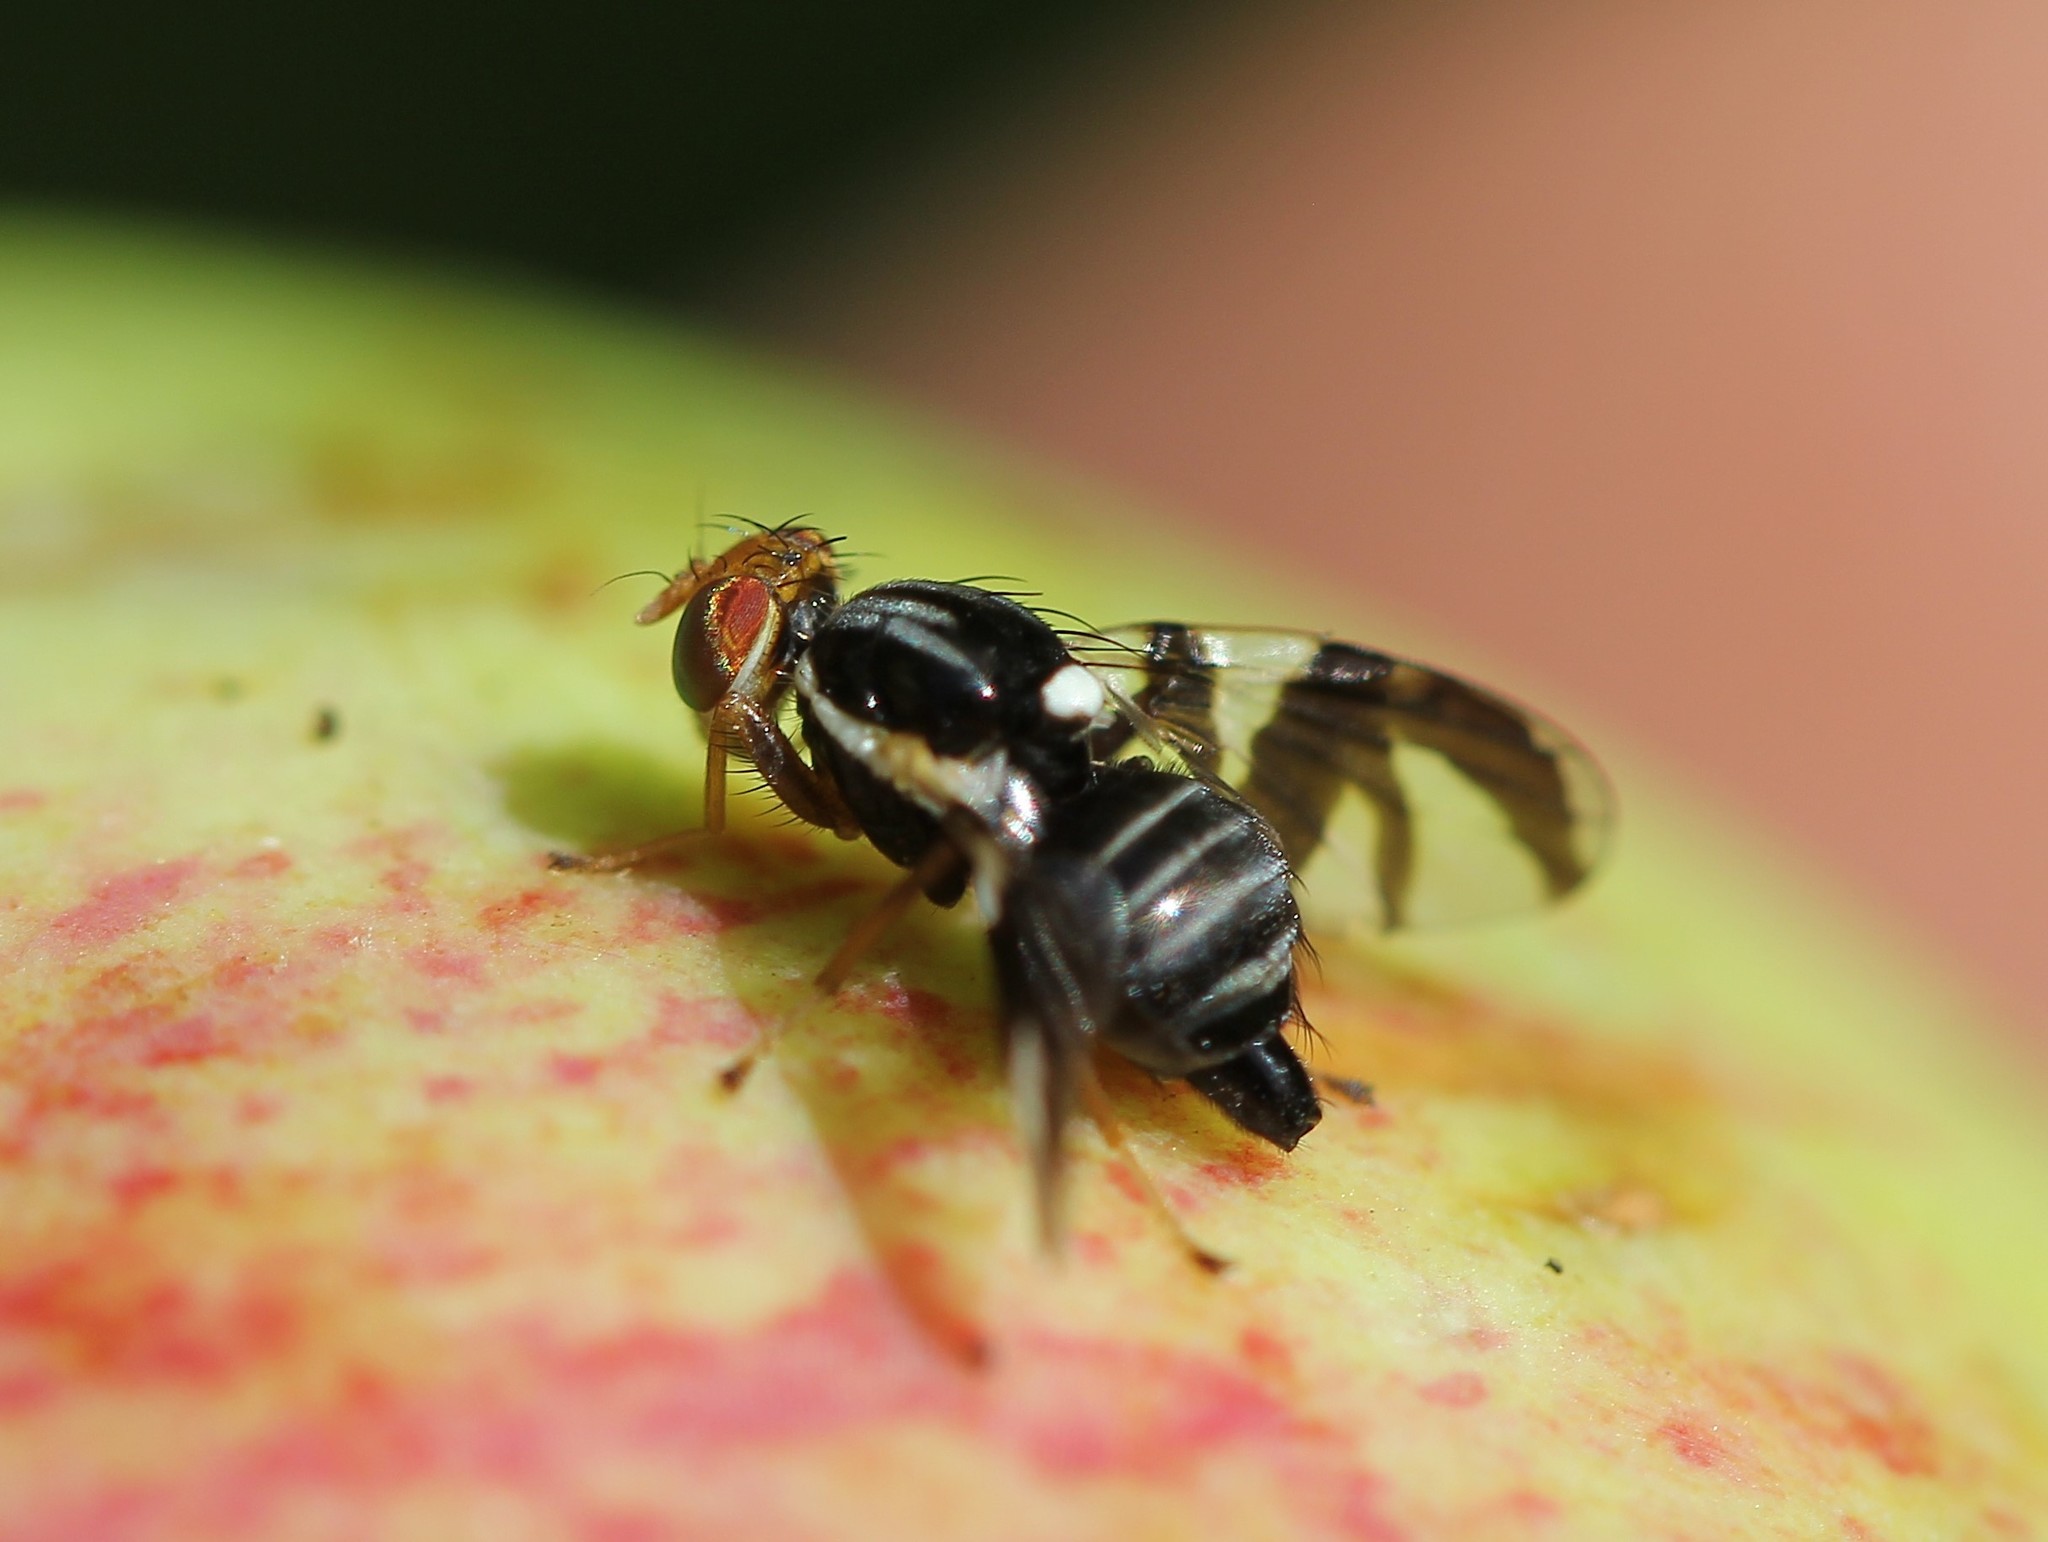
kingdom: Animalia
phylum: Arthropoda
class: Insecta
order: Diptera
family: Tephritidae
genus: Rhagoletis
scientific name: Rhagoletis pomonella
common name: Apple maggot
